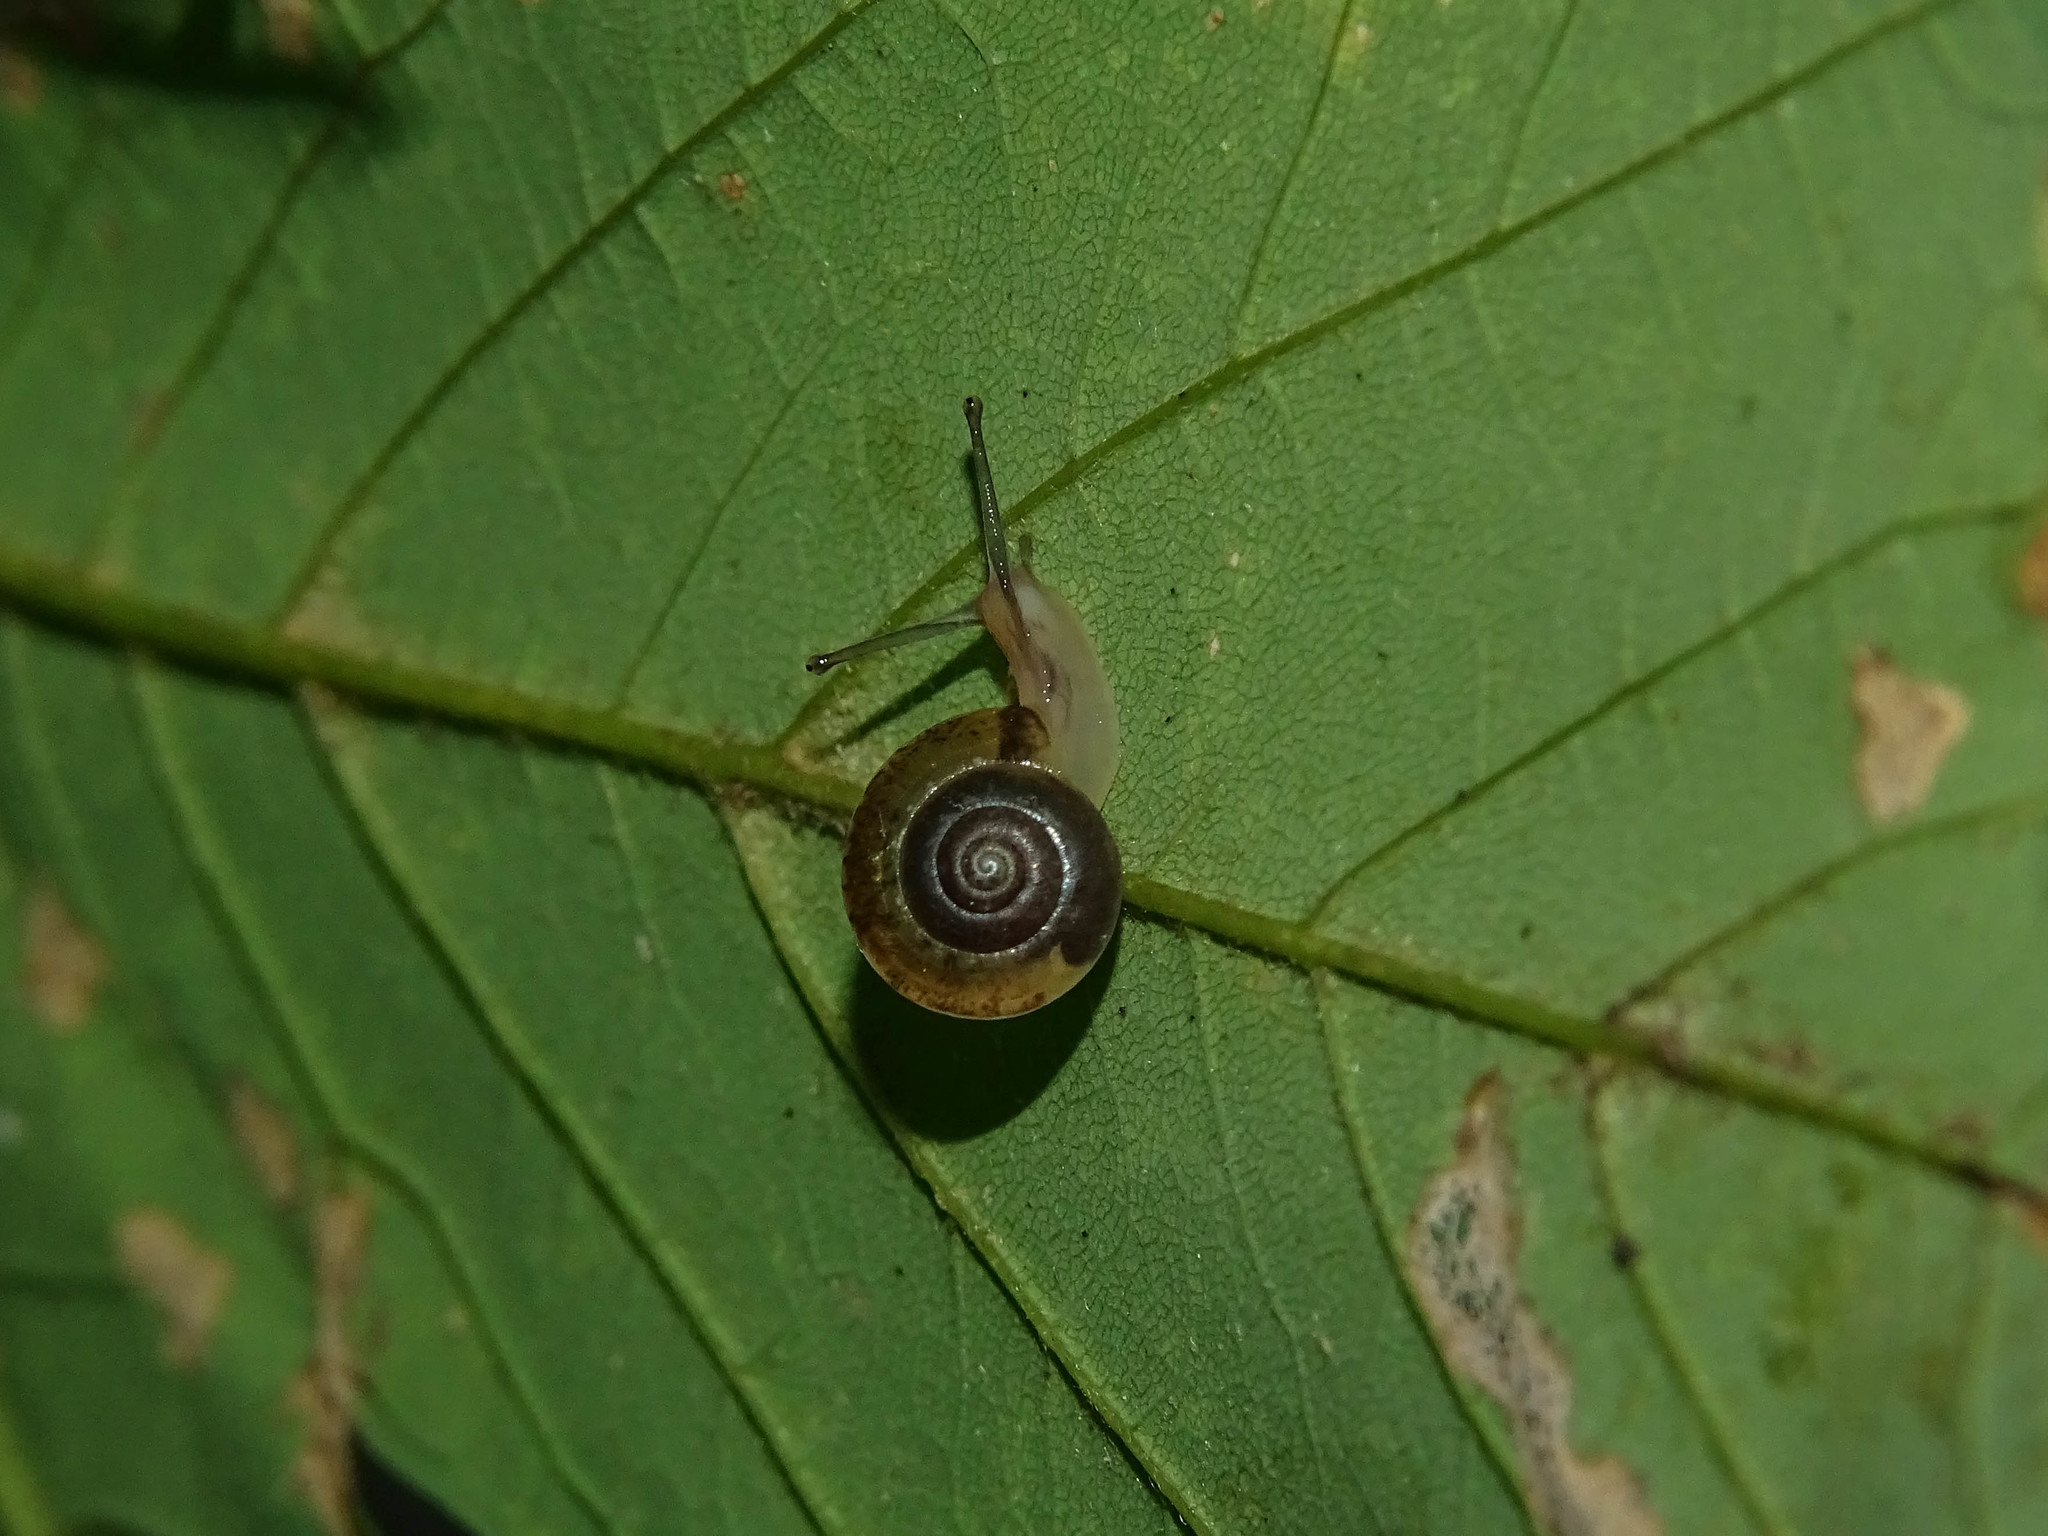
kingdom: Animalia
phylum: Mollusca
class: Gastropoda
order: Stylommatophora
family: Hygromiidae
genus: Hygromia
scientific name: Hygromia cinctella
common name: Girdled snail
